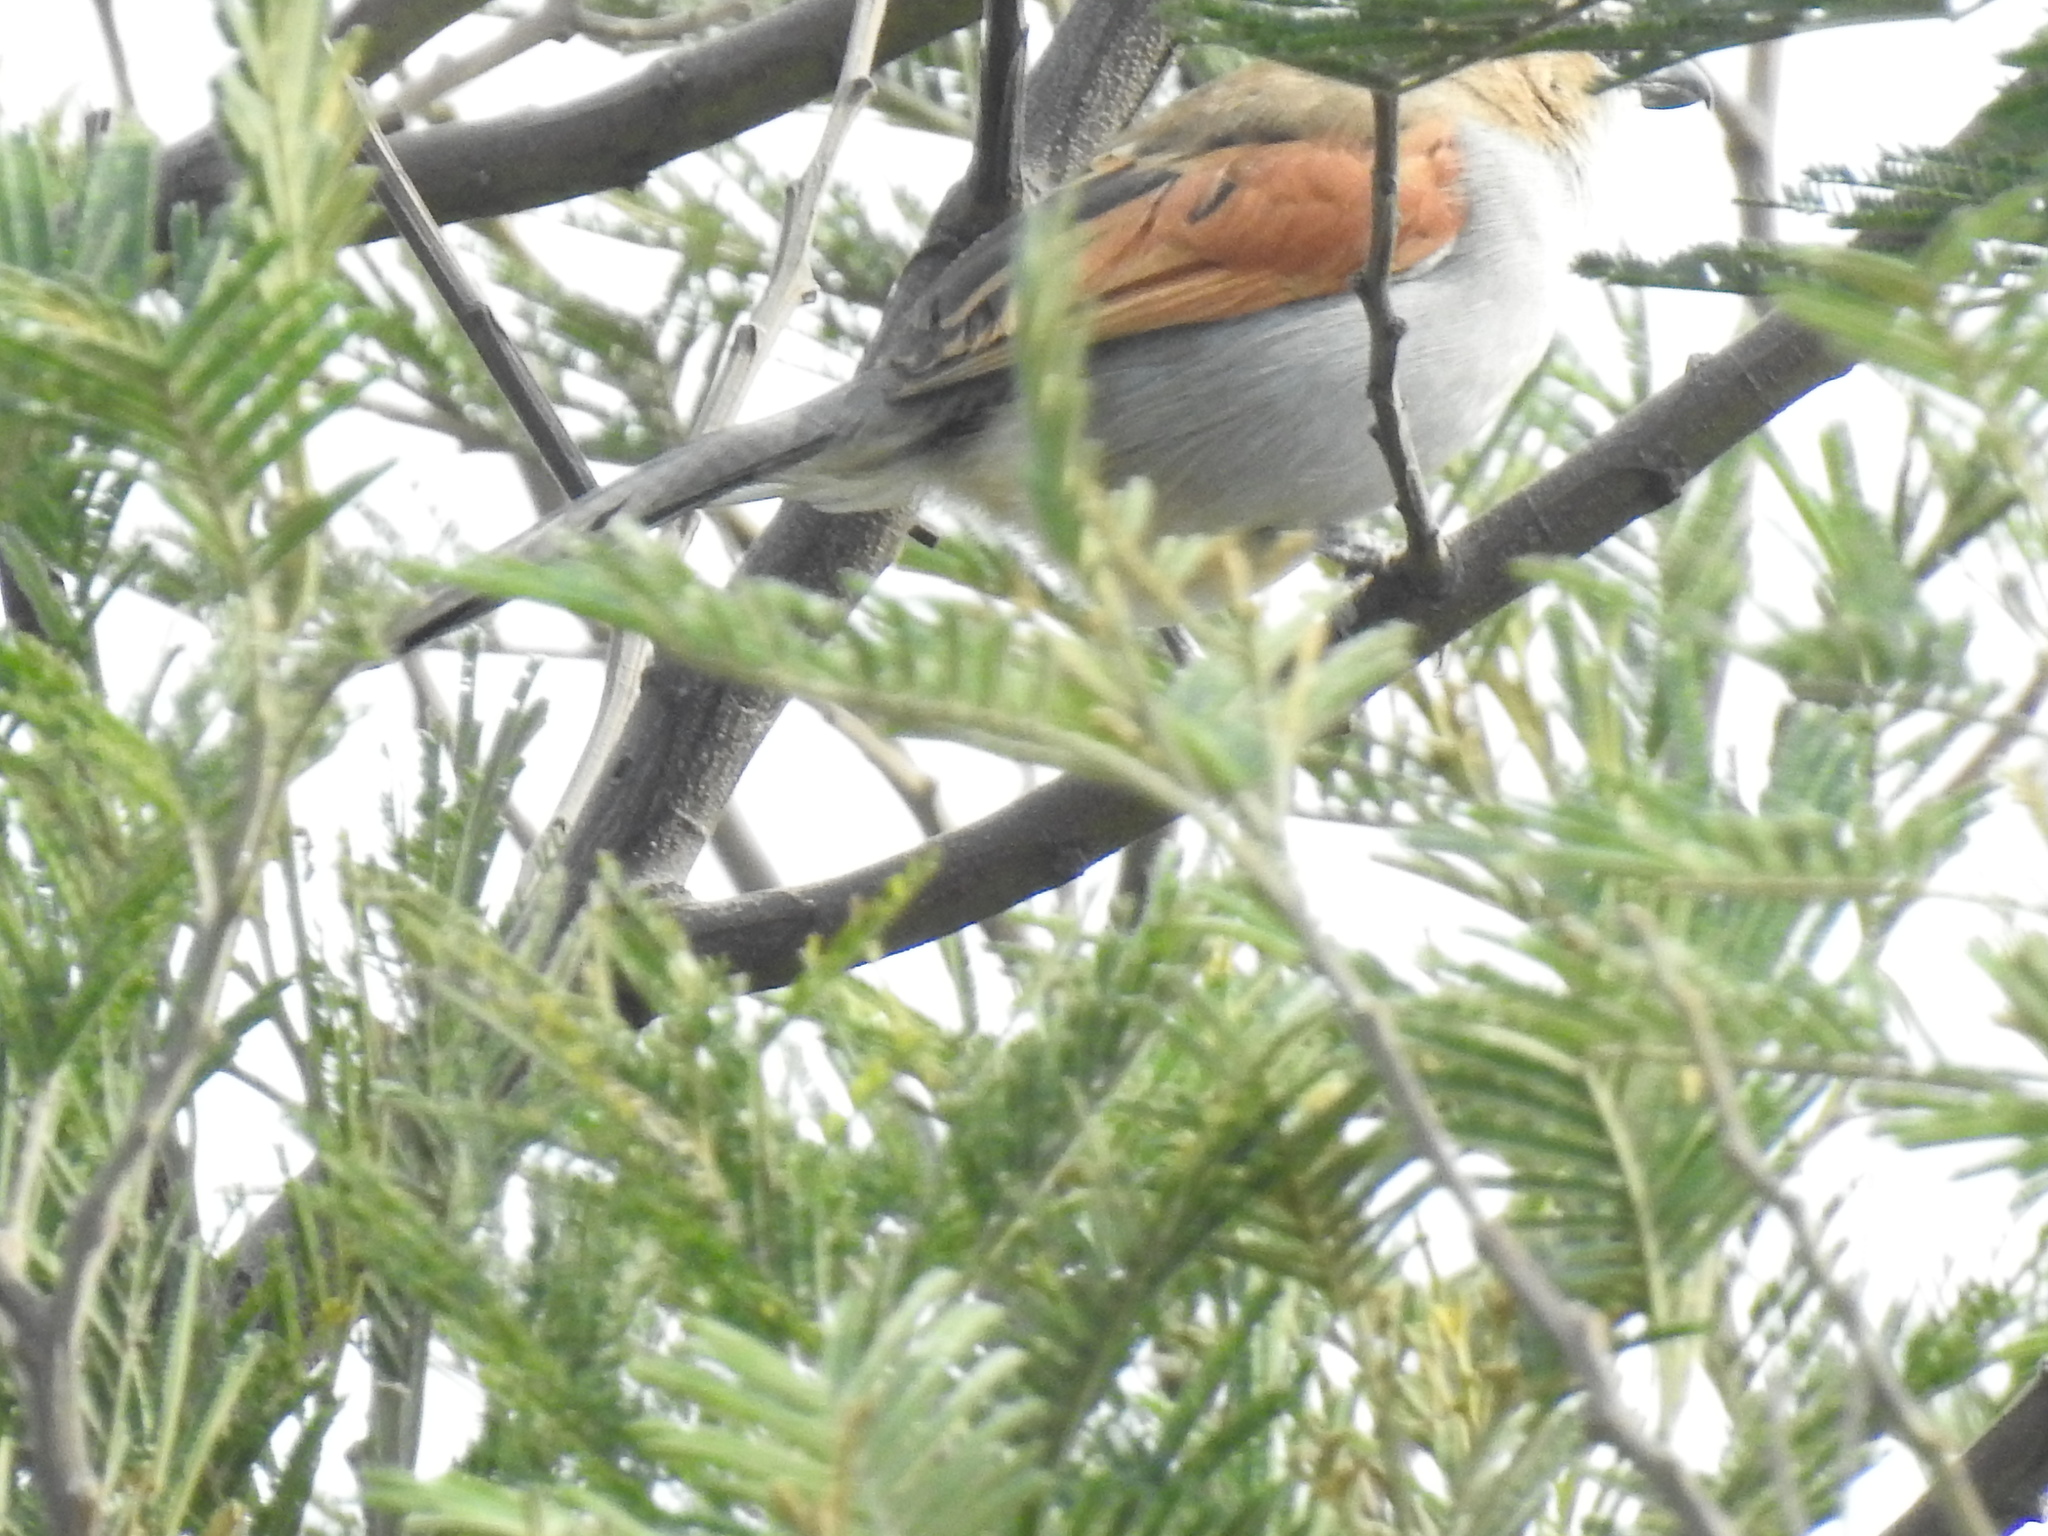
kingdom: Animalia
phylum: Chordata
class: Aves
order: Passeriformes
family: Malaconotidae
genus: Tchagra
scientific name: Tchagra senegalus
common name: Black-crowned tchagra
